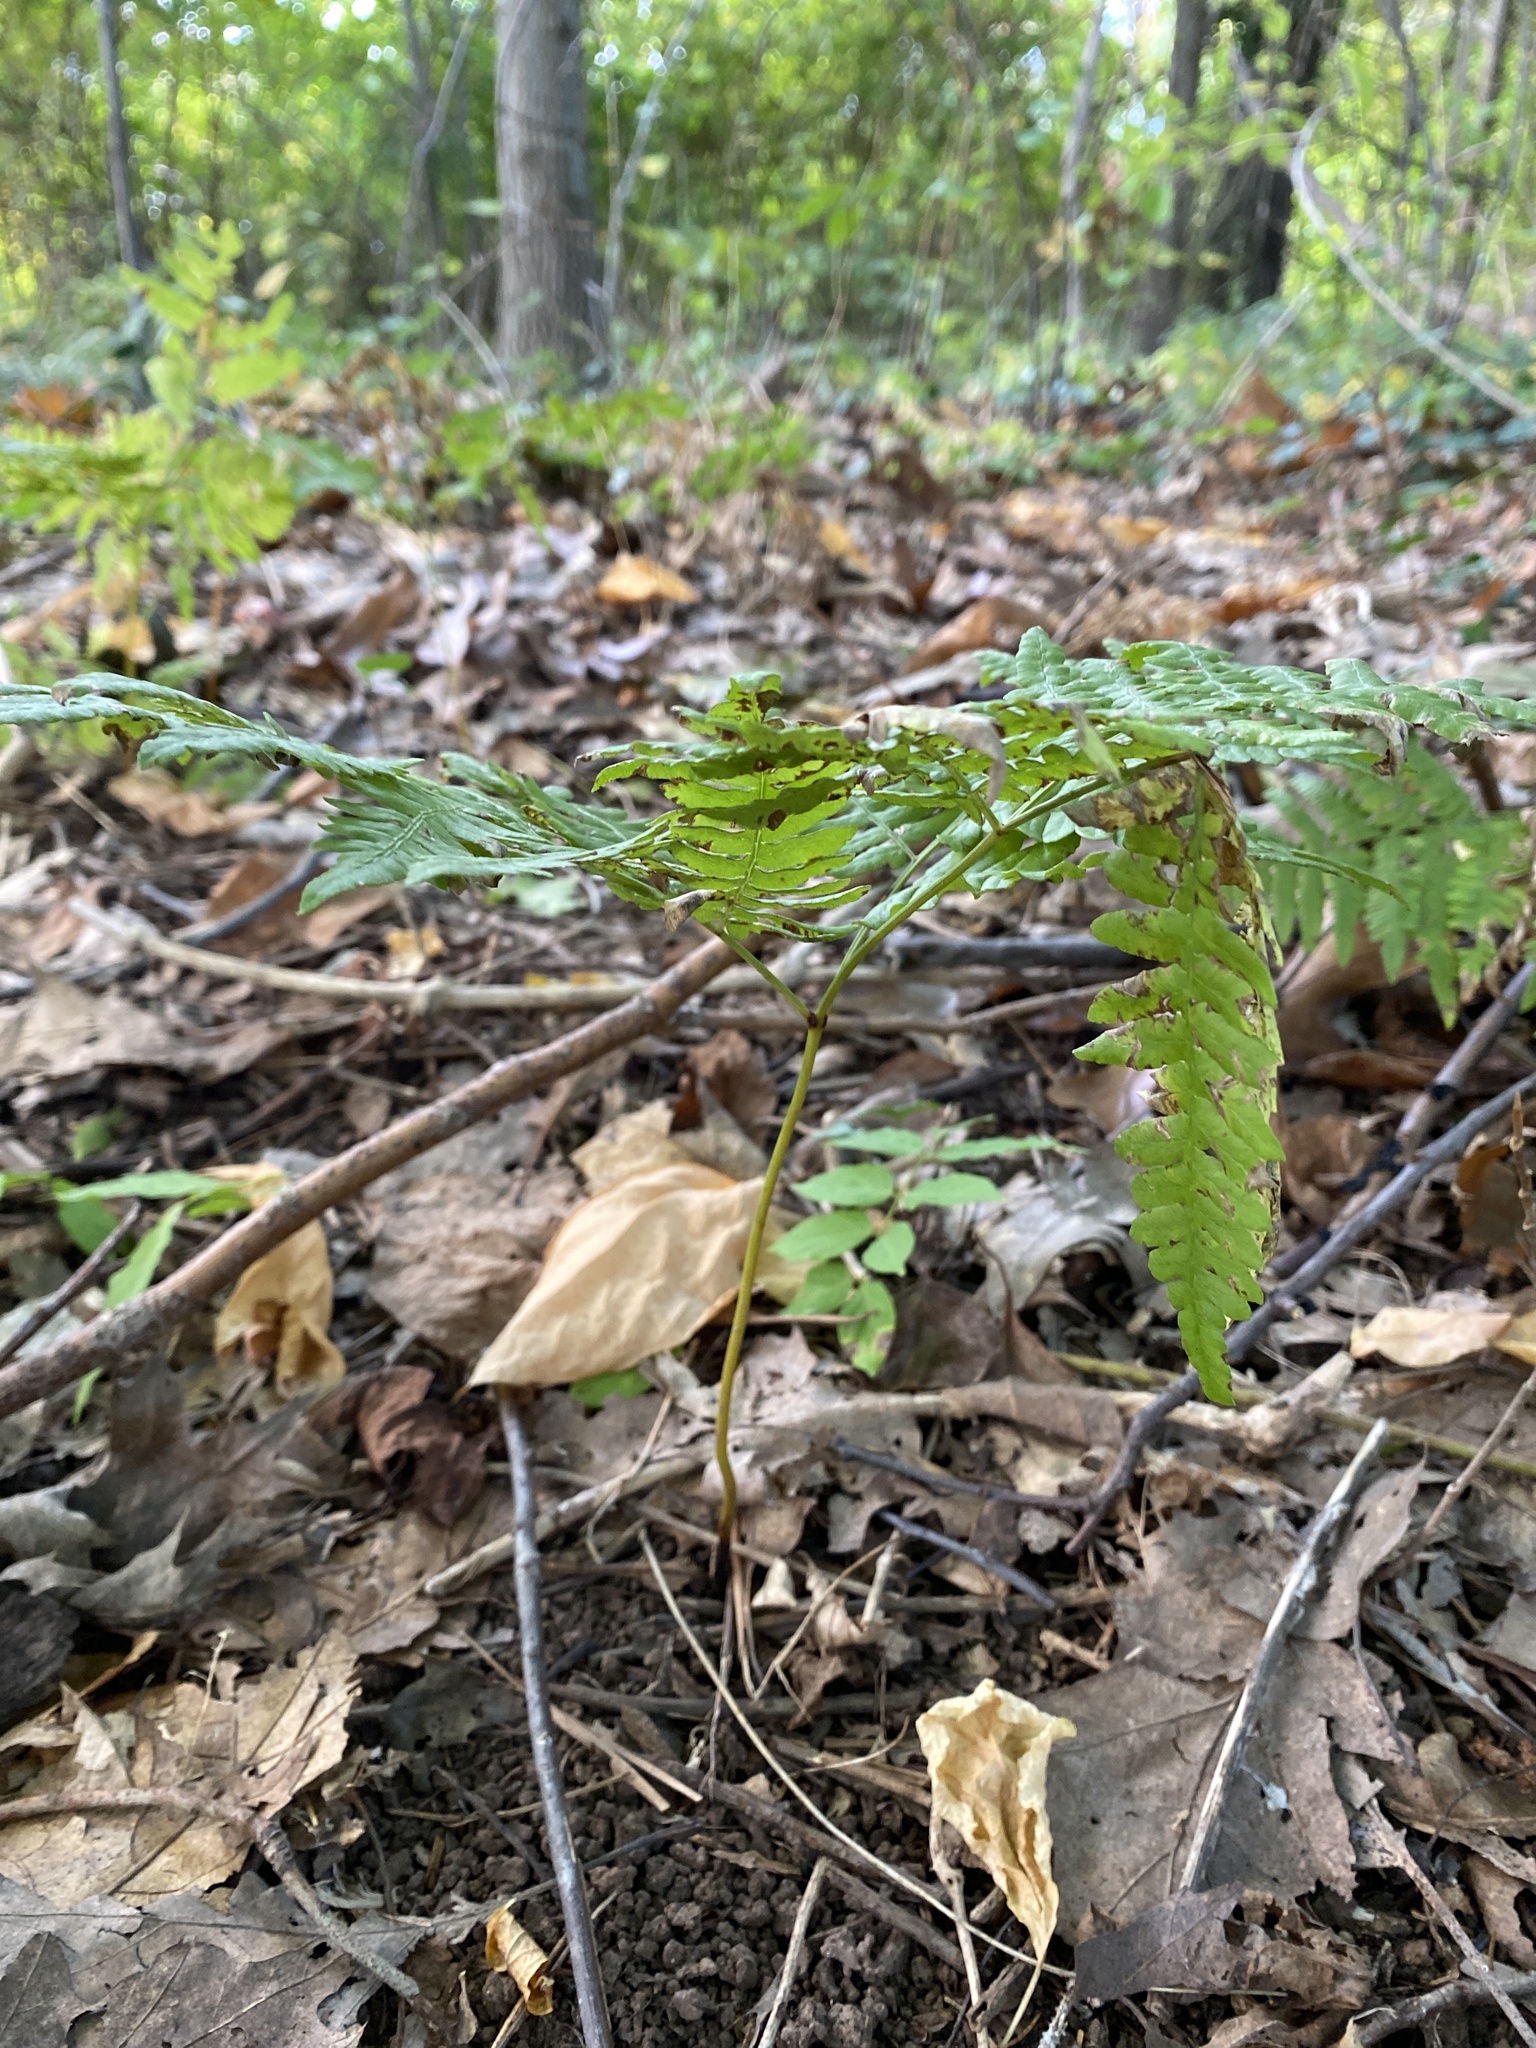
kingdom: Plantae
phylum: Tracheophyta
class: Polypodiopsida
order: Polypodiales
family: Dennstaedtiaceae
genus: Pteridium
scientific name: Pteridium aquilinum
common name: Bracken
